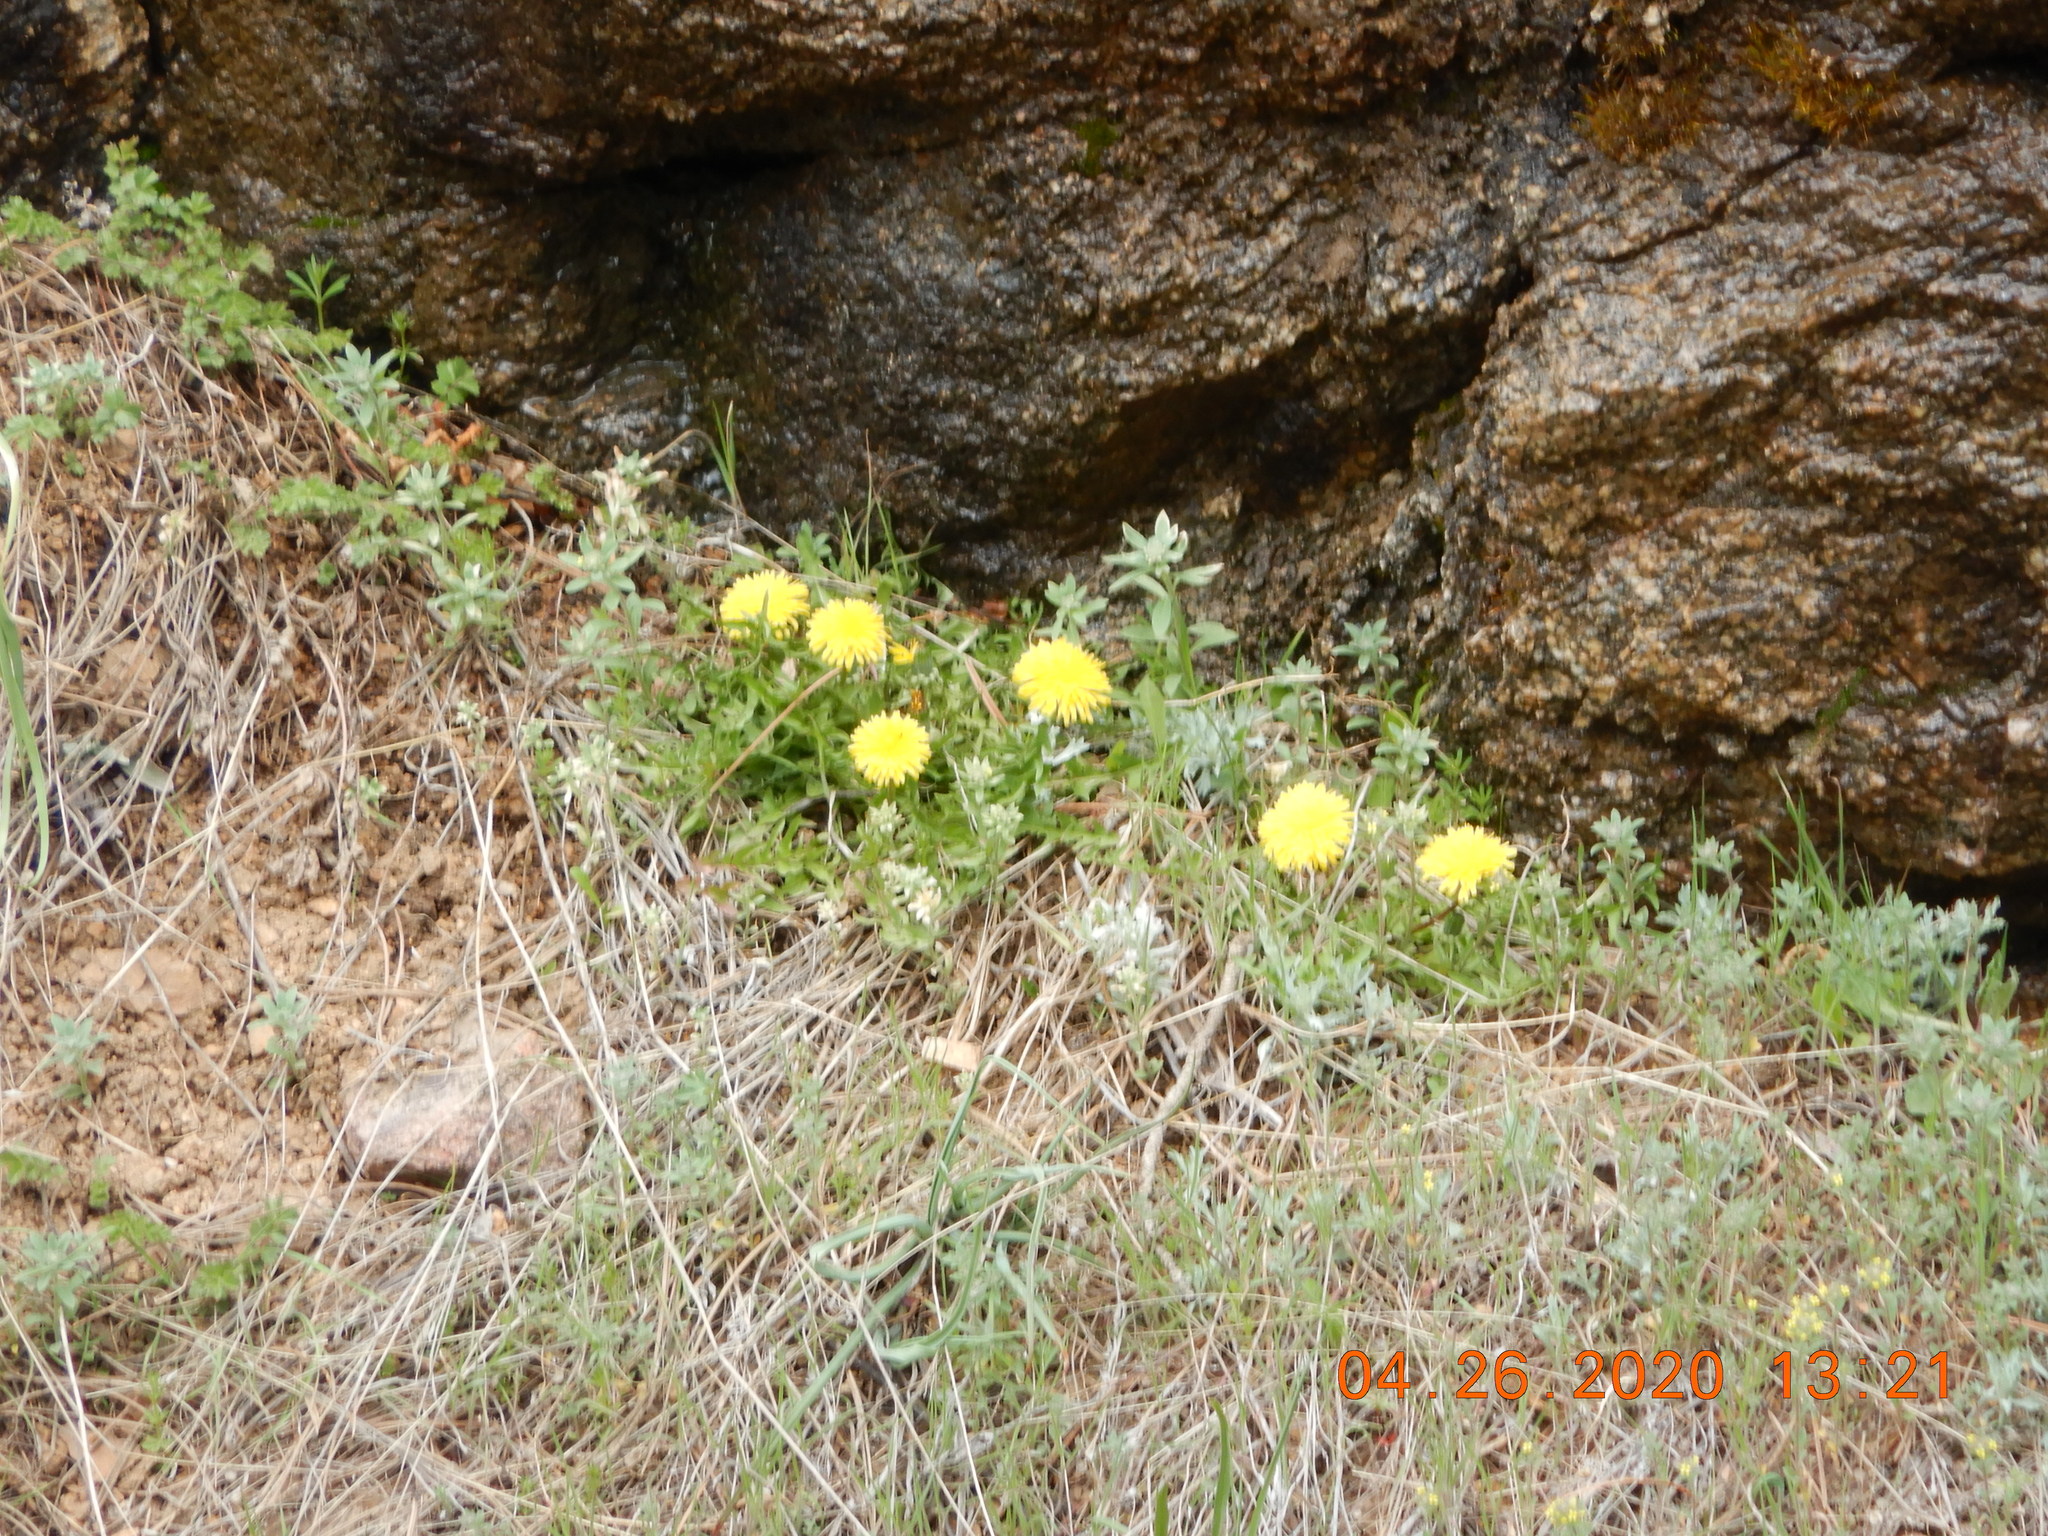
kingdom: Plantae
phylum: Tracheophyta
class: Magnoliopsida
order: Asterales
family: Asteraceae
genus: Taraxacum
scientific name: Taraxacum officinale
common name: Common dandelion
